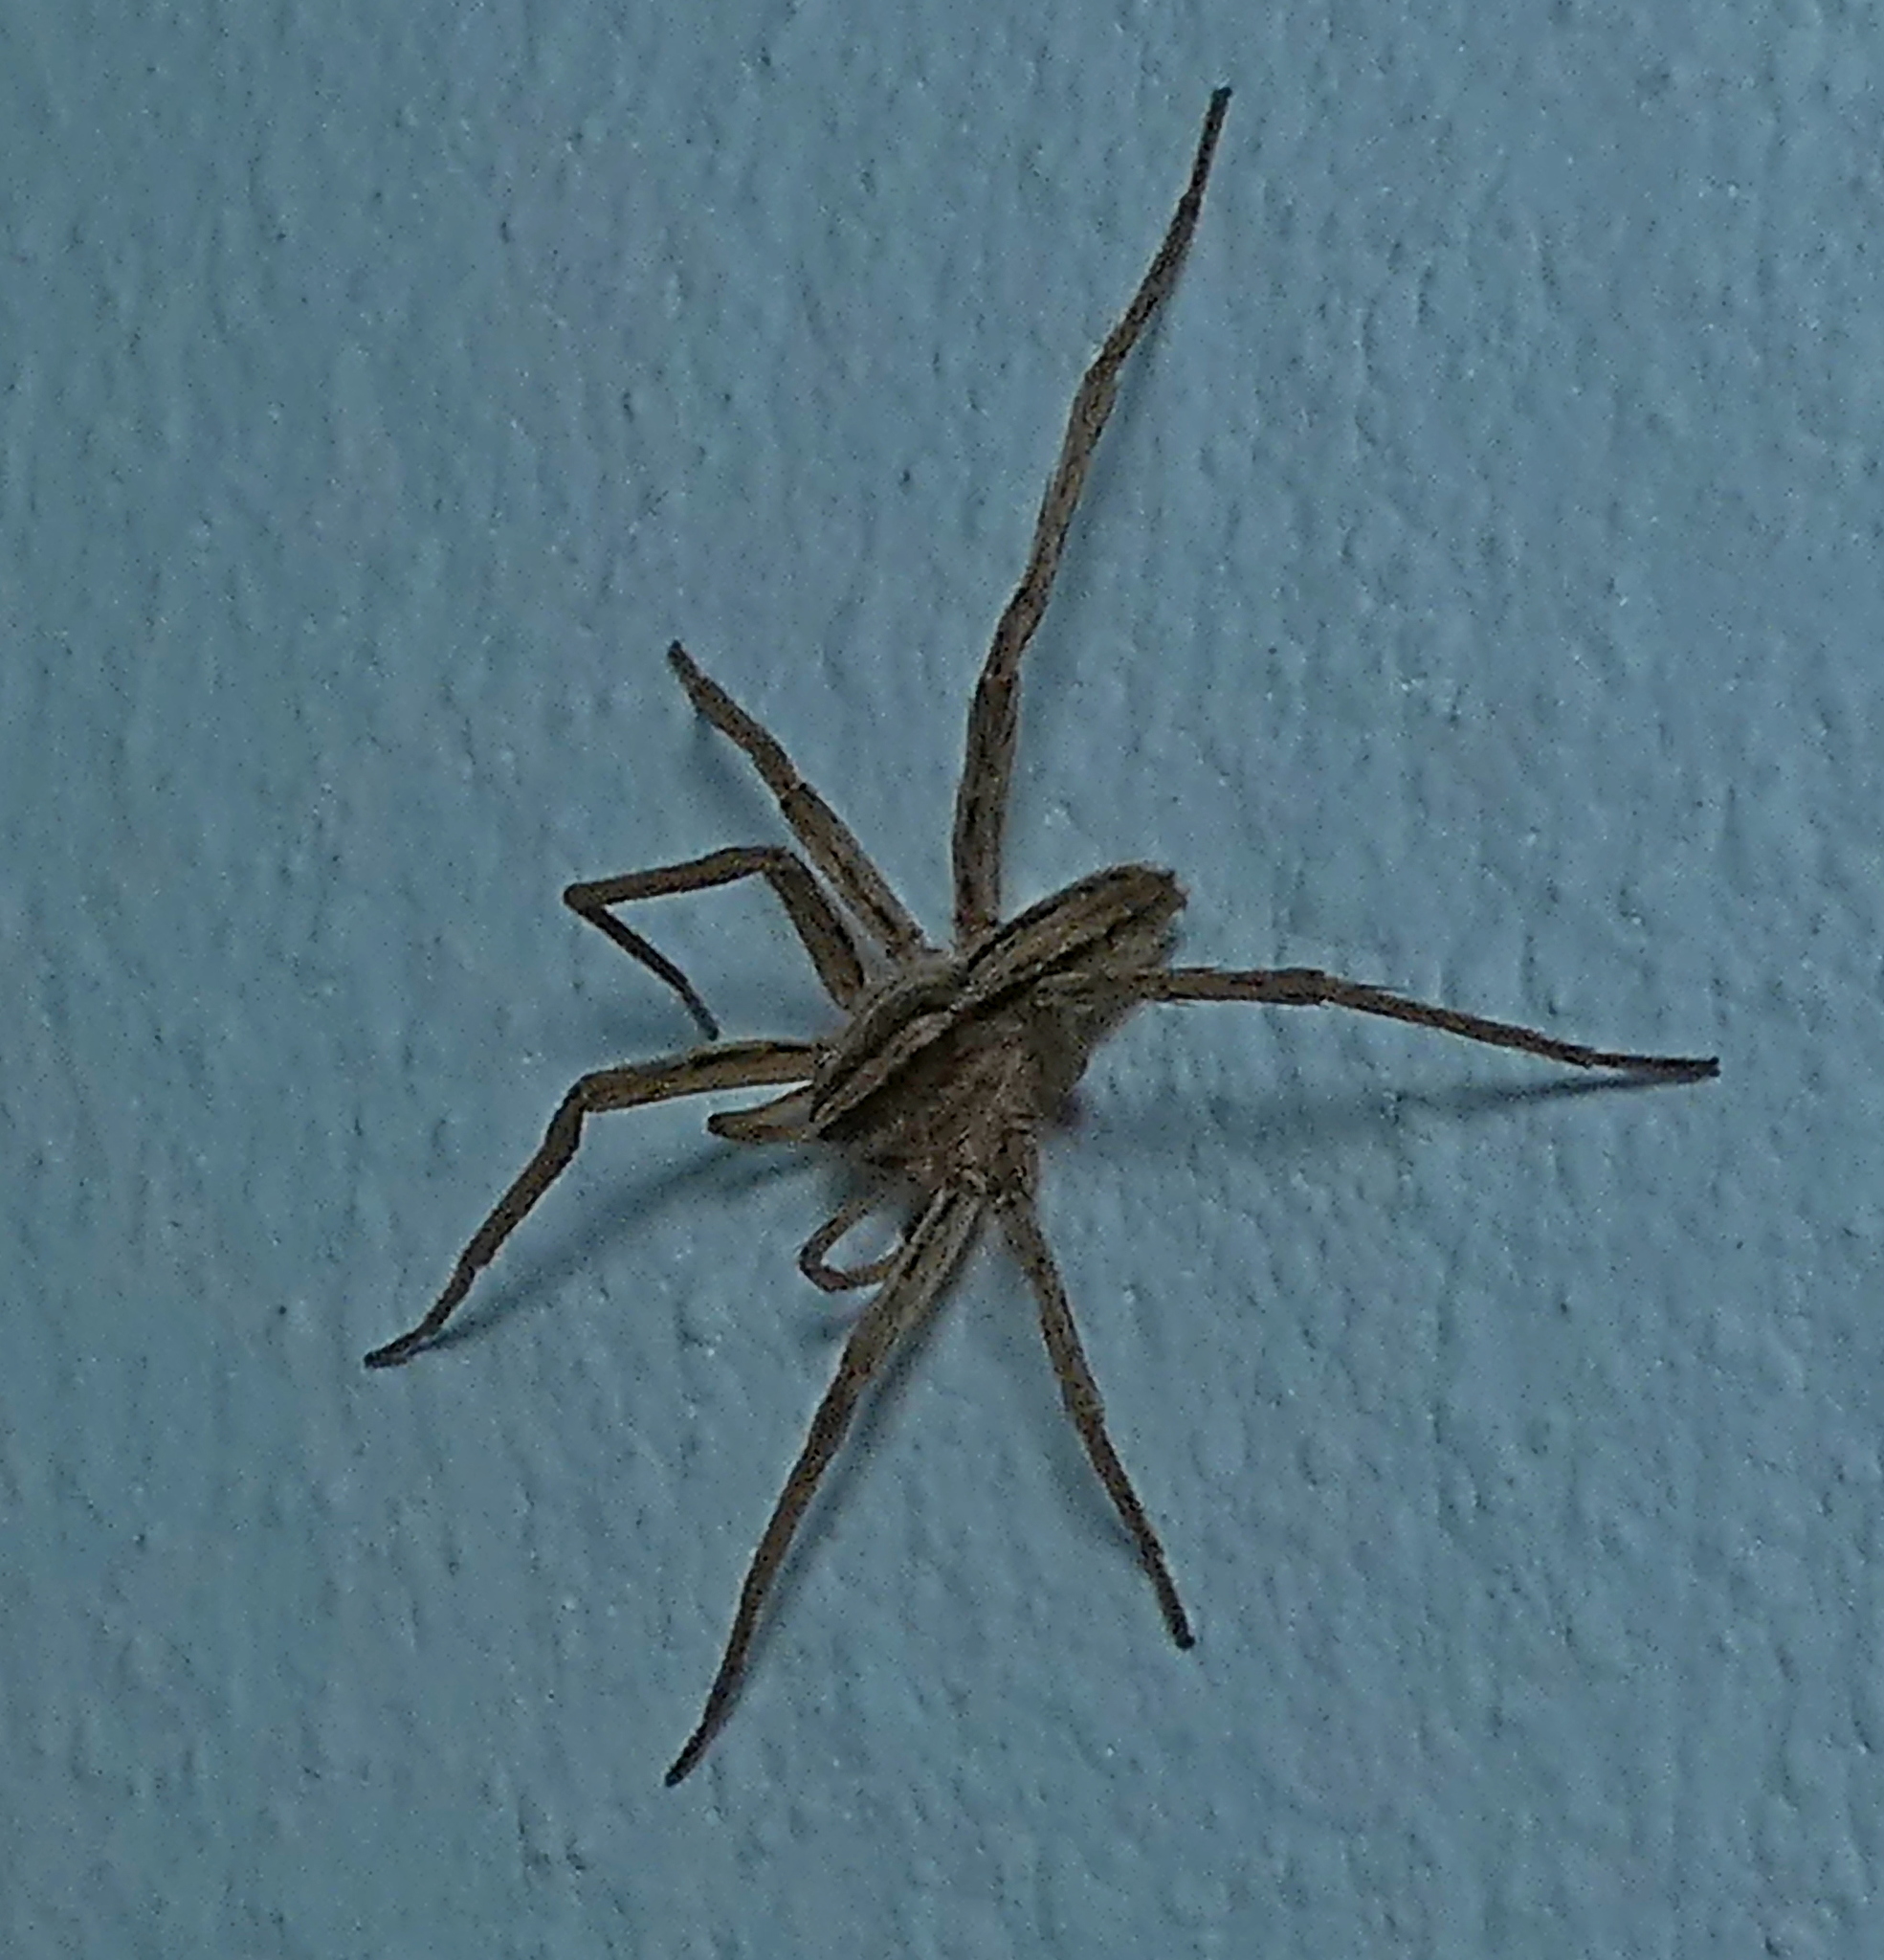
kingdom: Animalia
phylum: Arthropoda
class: Arachnida
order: Araneae
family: Ctenidae
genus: Parabatinga
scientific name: Parabatinga brevipes
